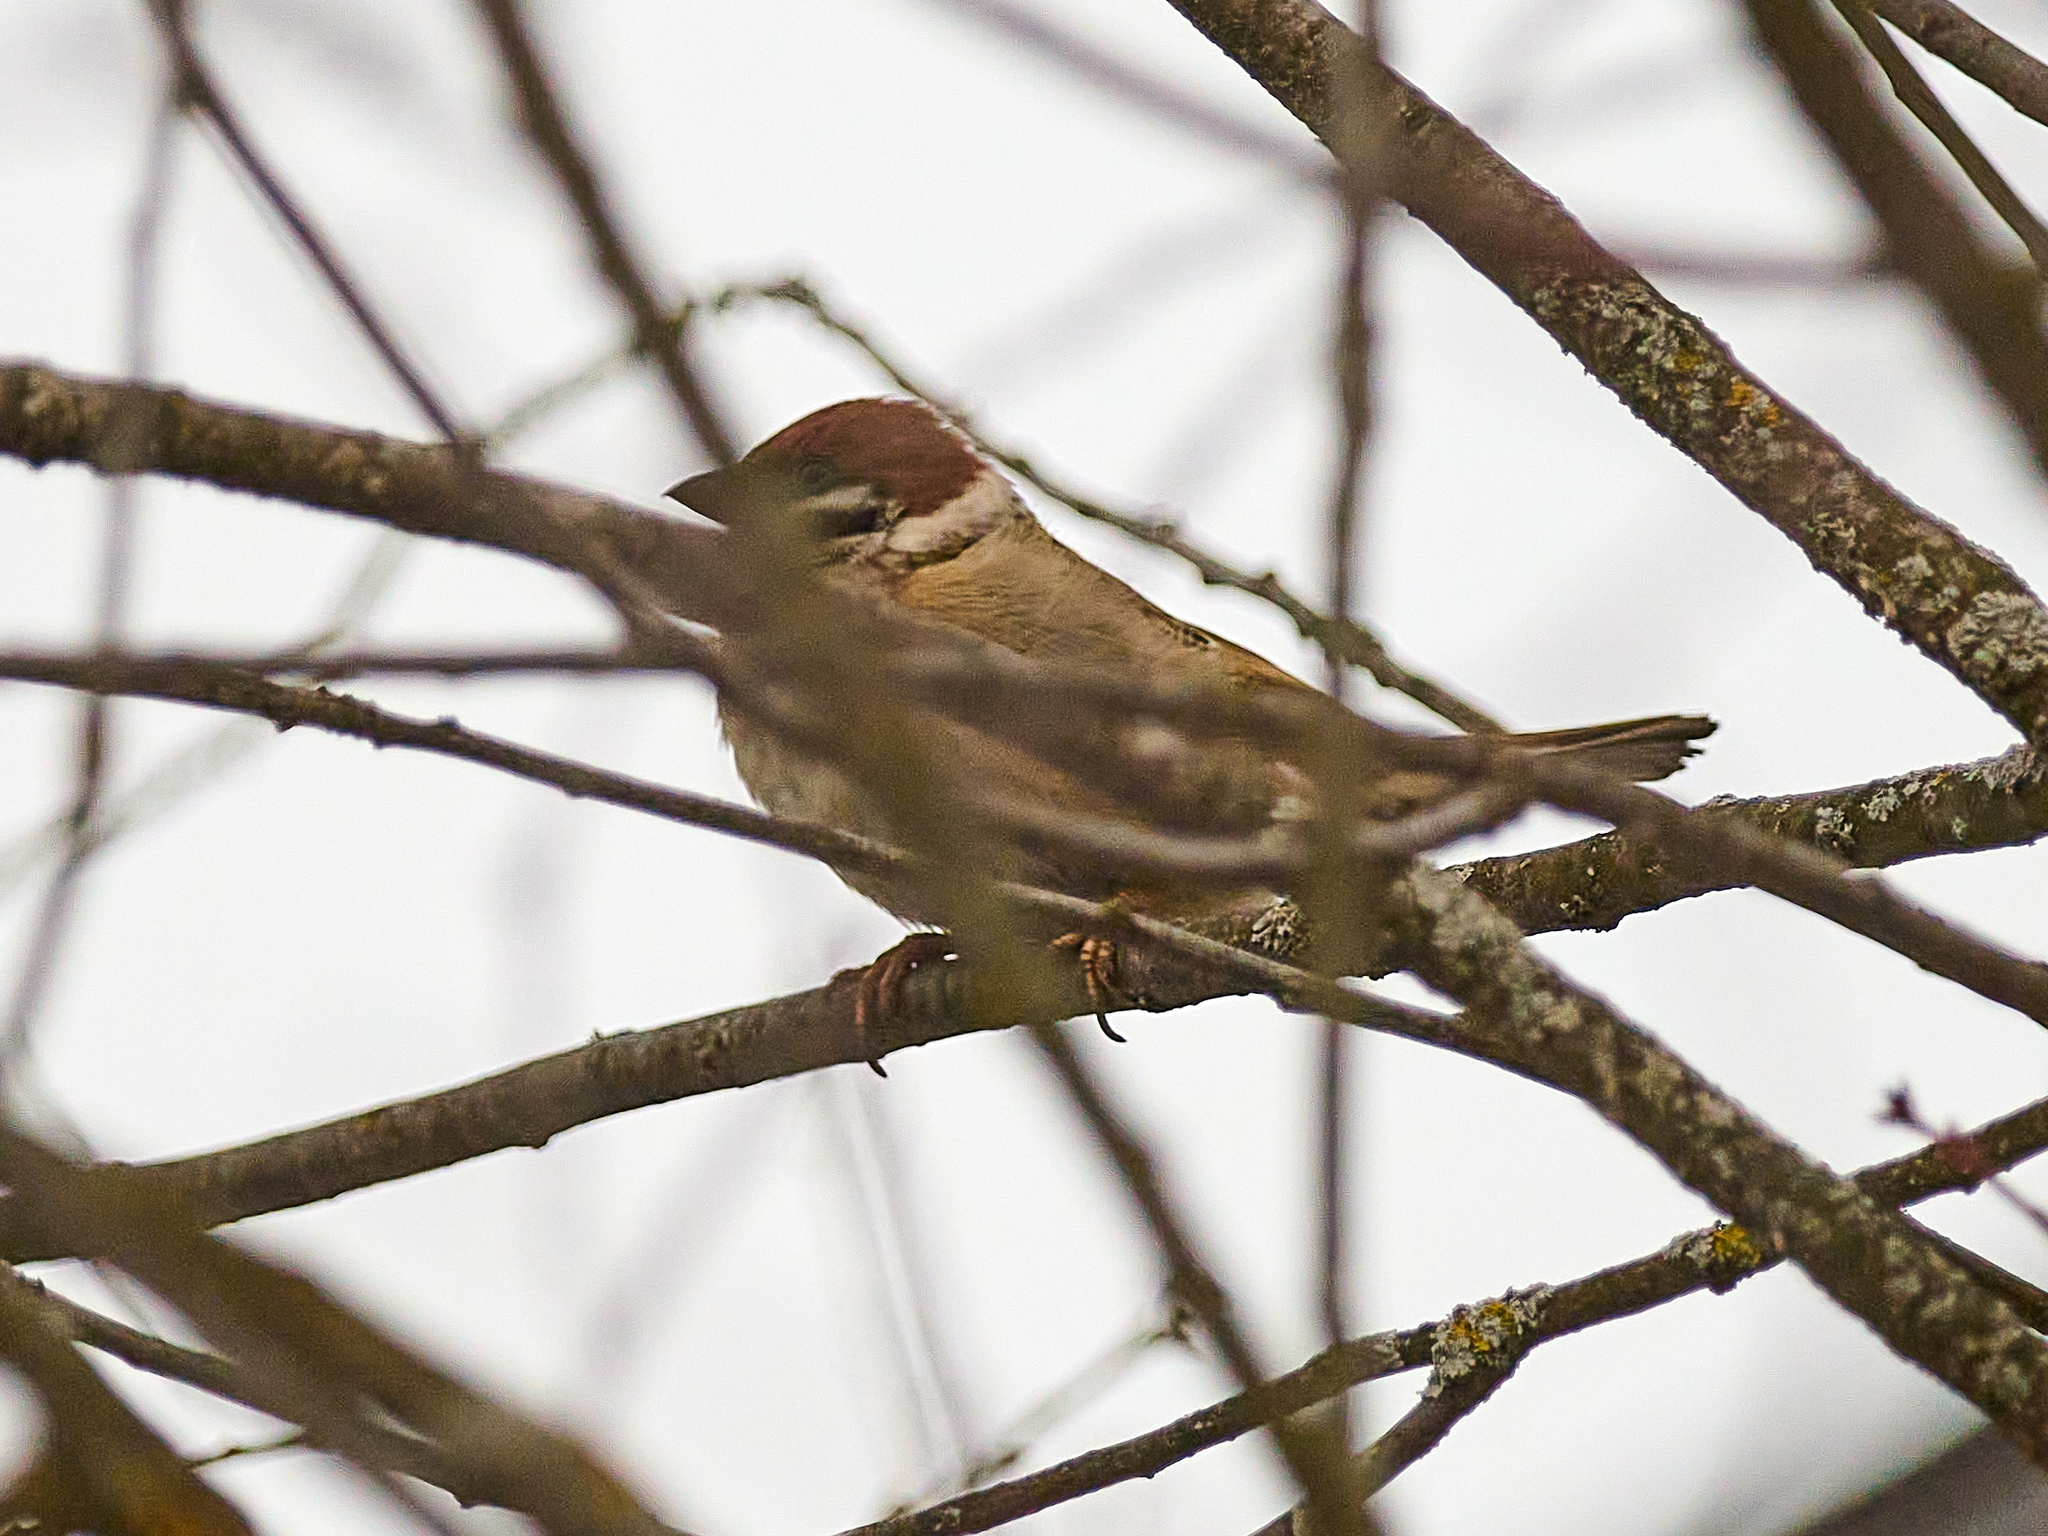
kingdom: Animalia
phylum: Chordata
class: Aves
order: Passeriformes
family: Passeridae
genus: Passer
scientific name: Passer montanus
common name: Eurasian tree sparrow
